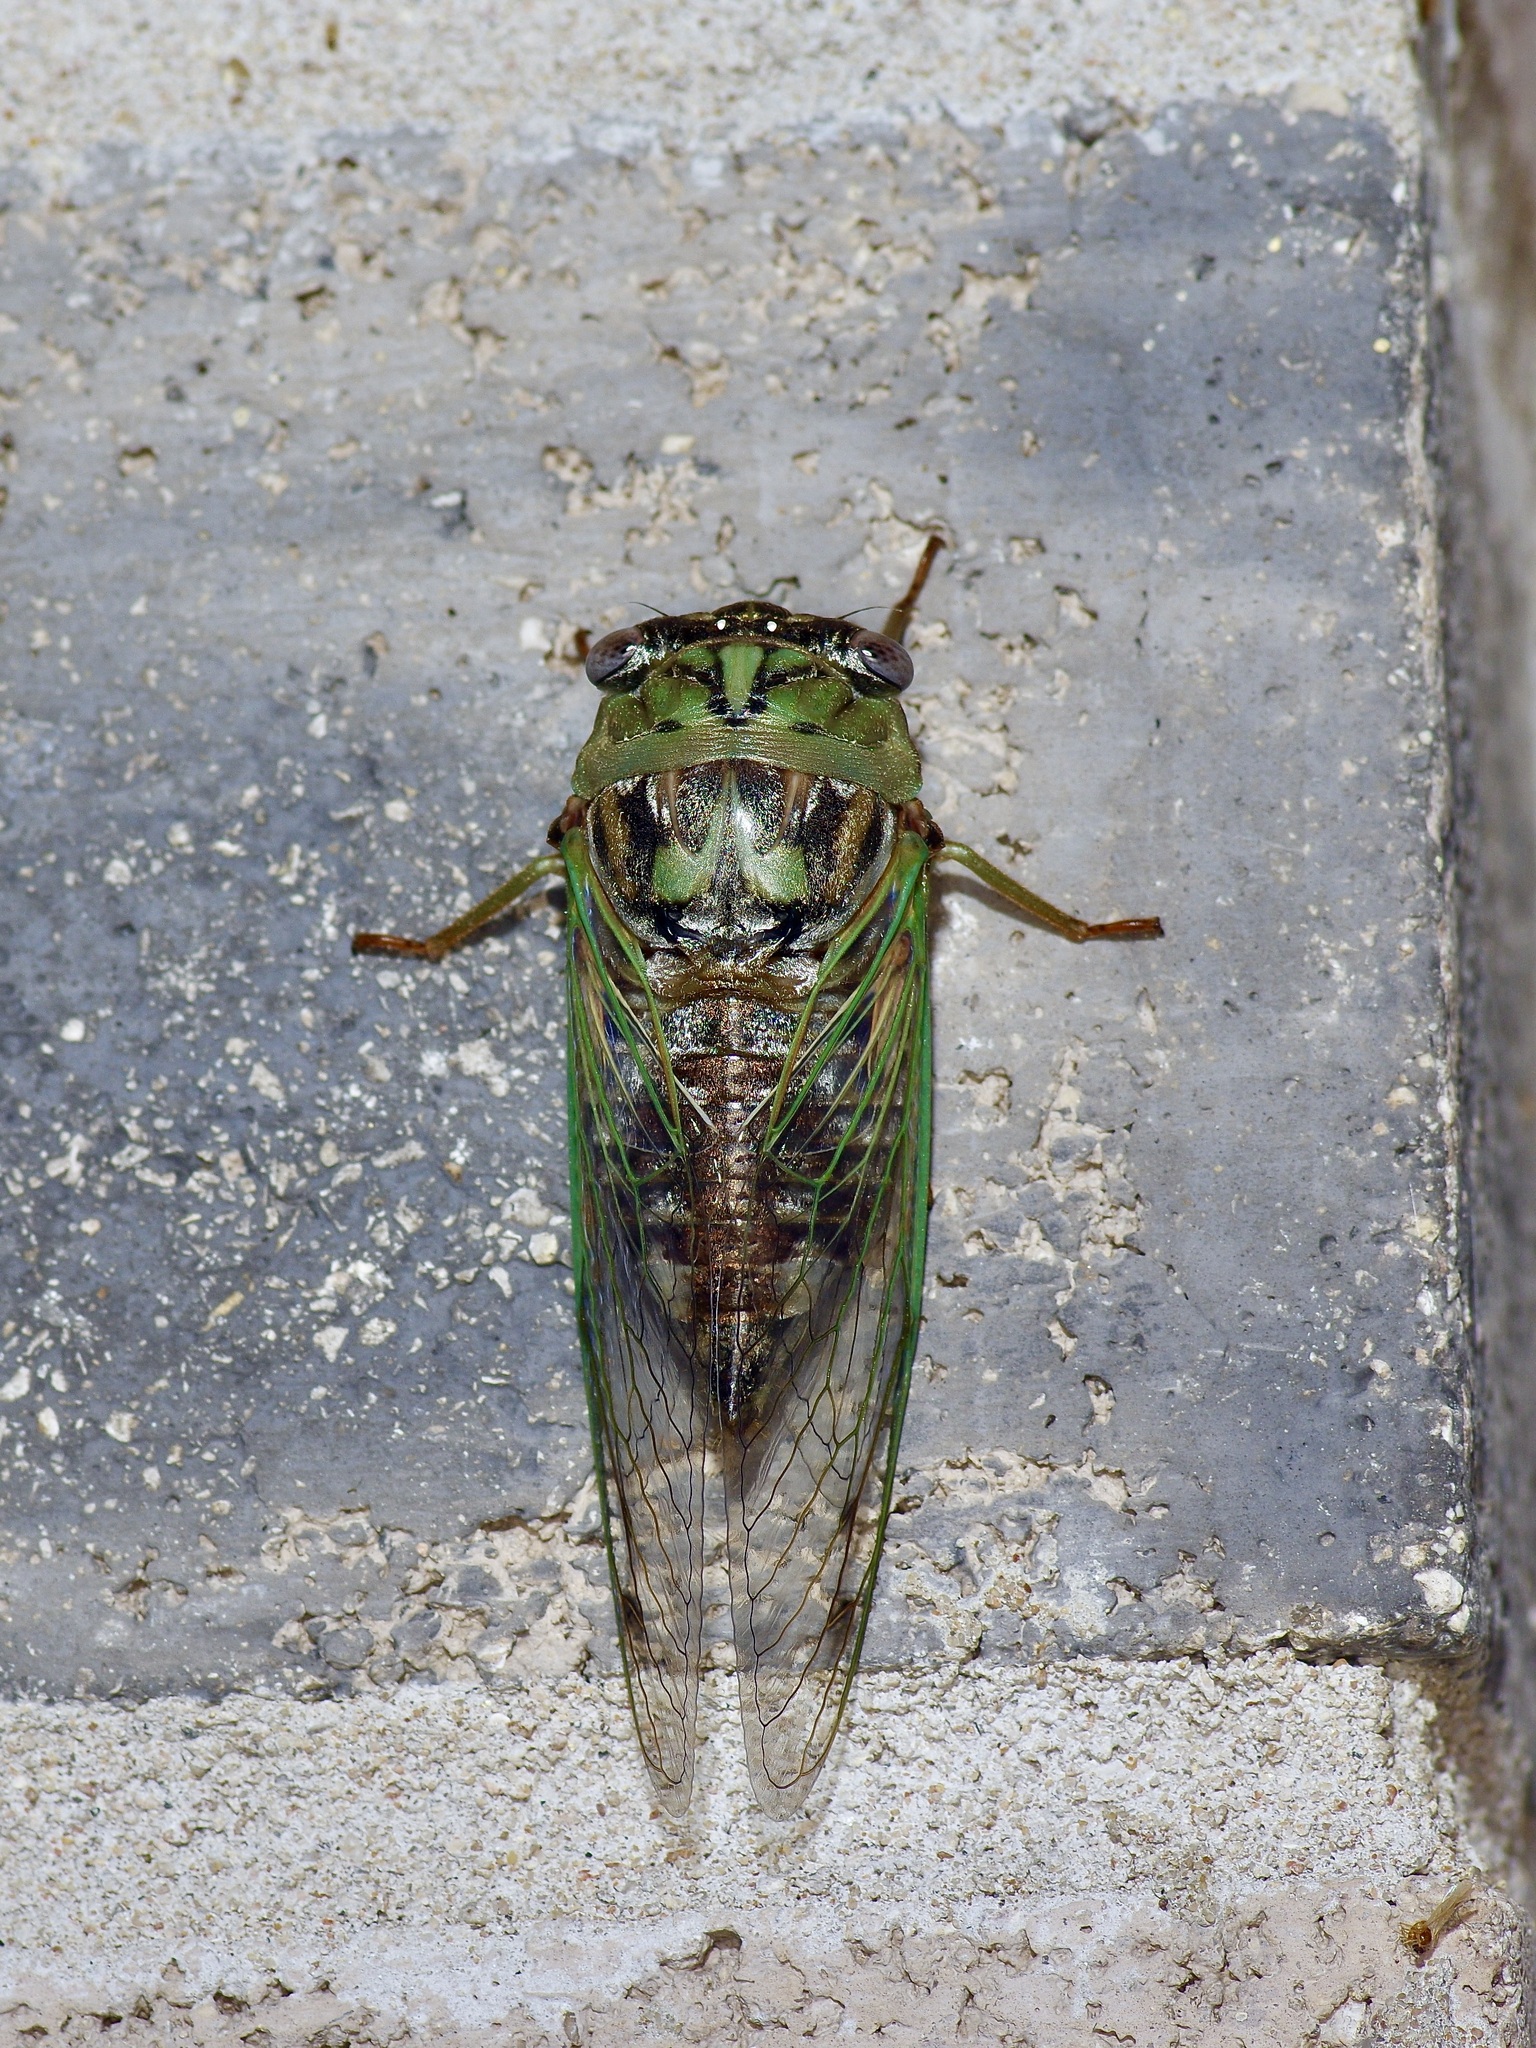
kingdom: Animalia
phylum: Arthropoda
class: Insecta
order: Hemiptera
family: Cicadidae
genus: Megatibicen
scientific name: Megatibicen resh
